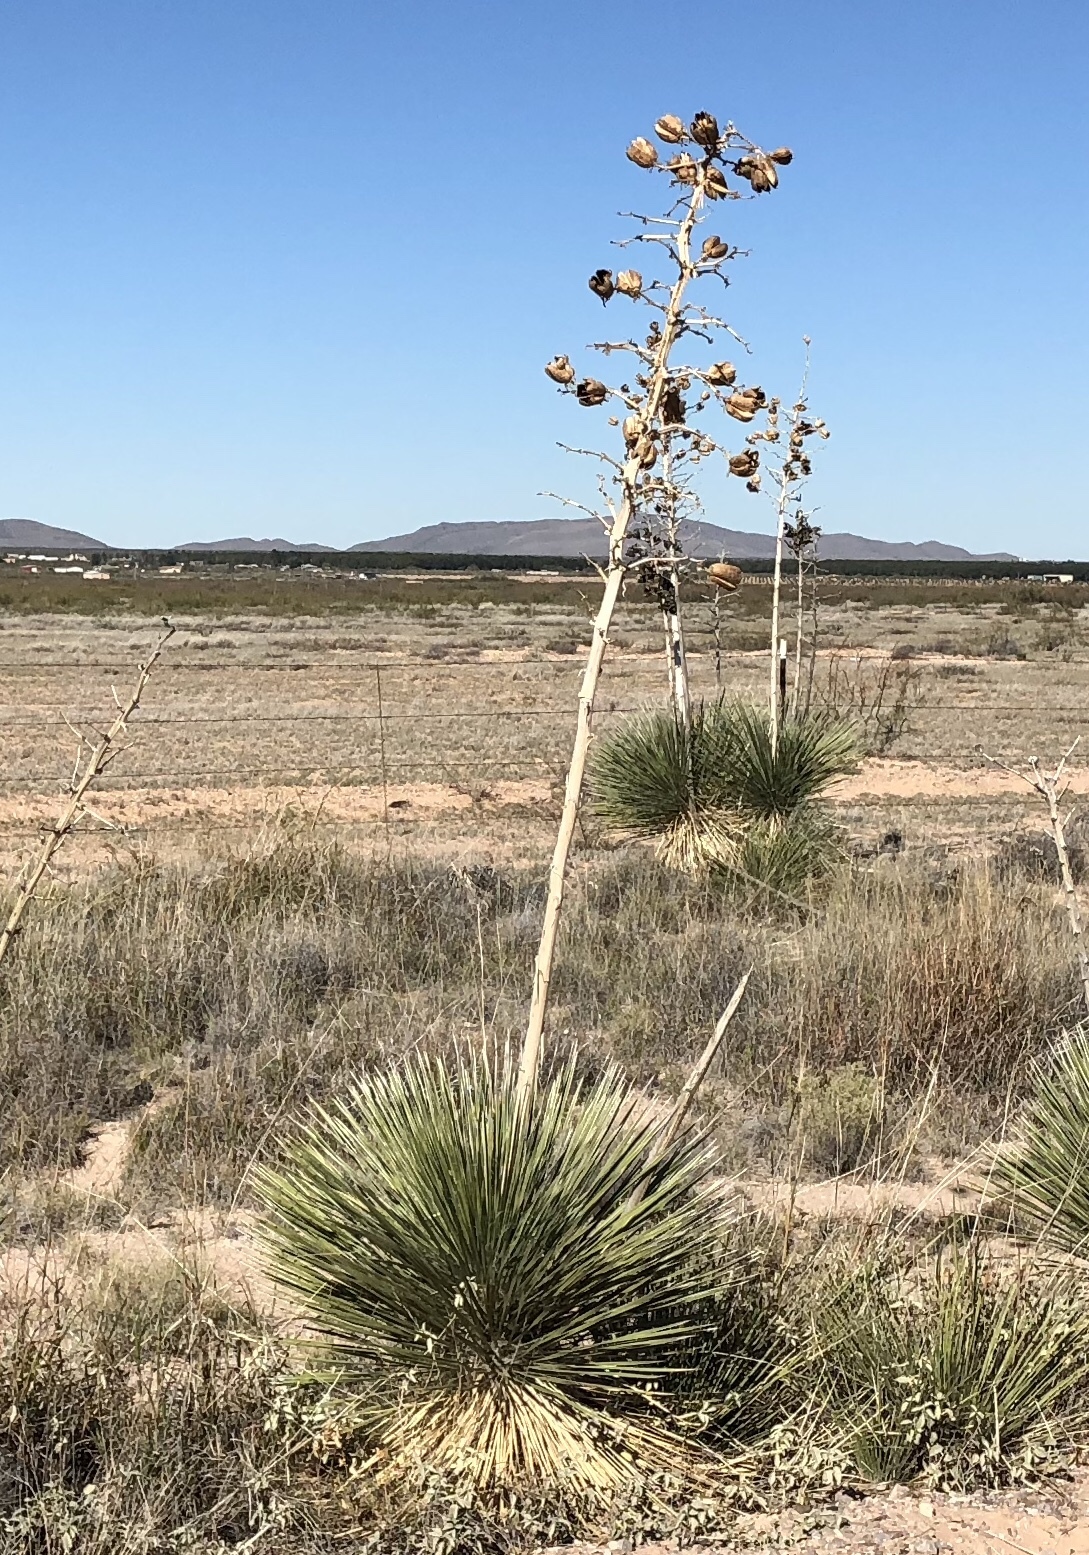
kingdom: Plantae
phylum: Tracheophyta
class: Liliopsida
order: Asparagales
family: Asparagaceae
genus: Yucca
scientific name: Yucca elata
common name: Palmella
